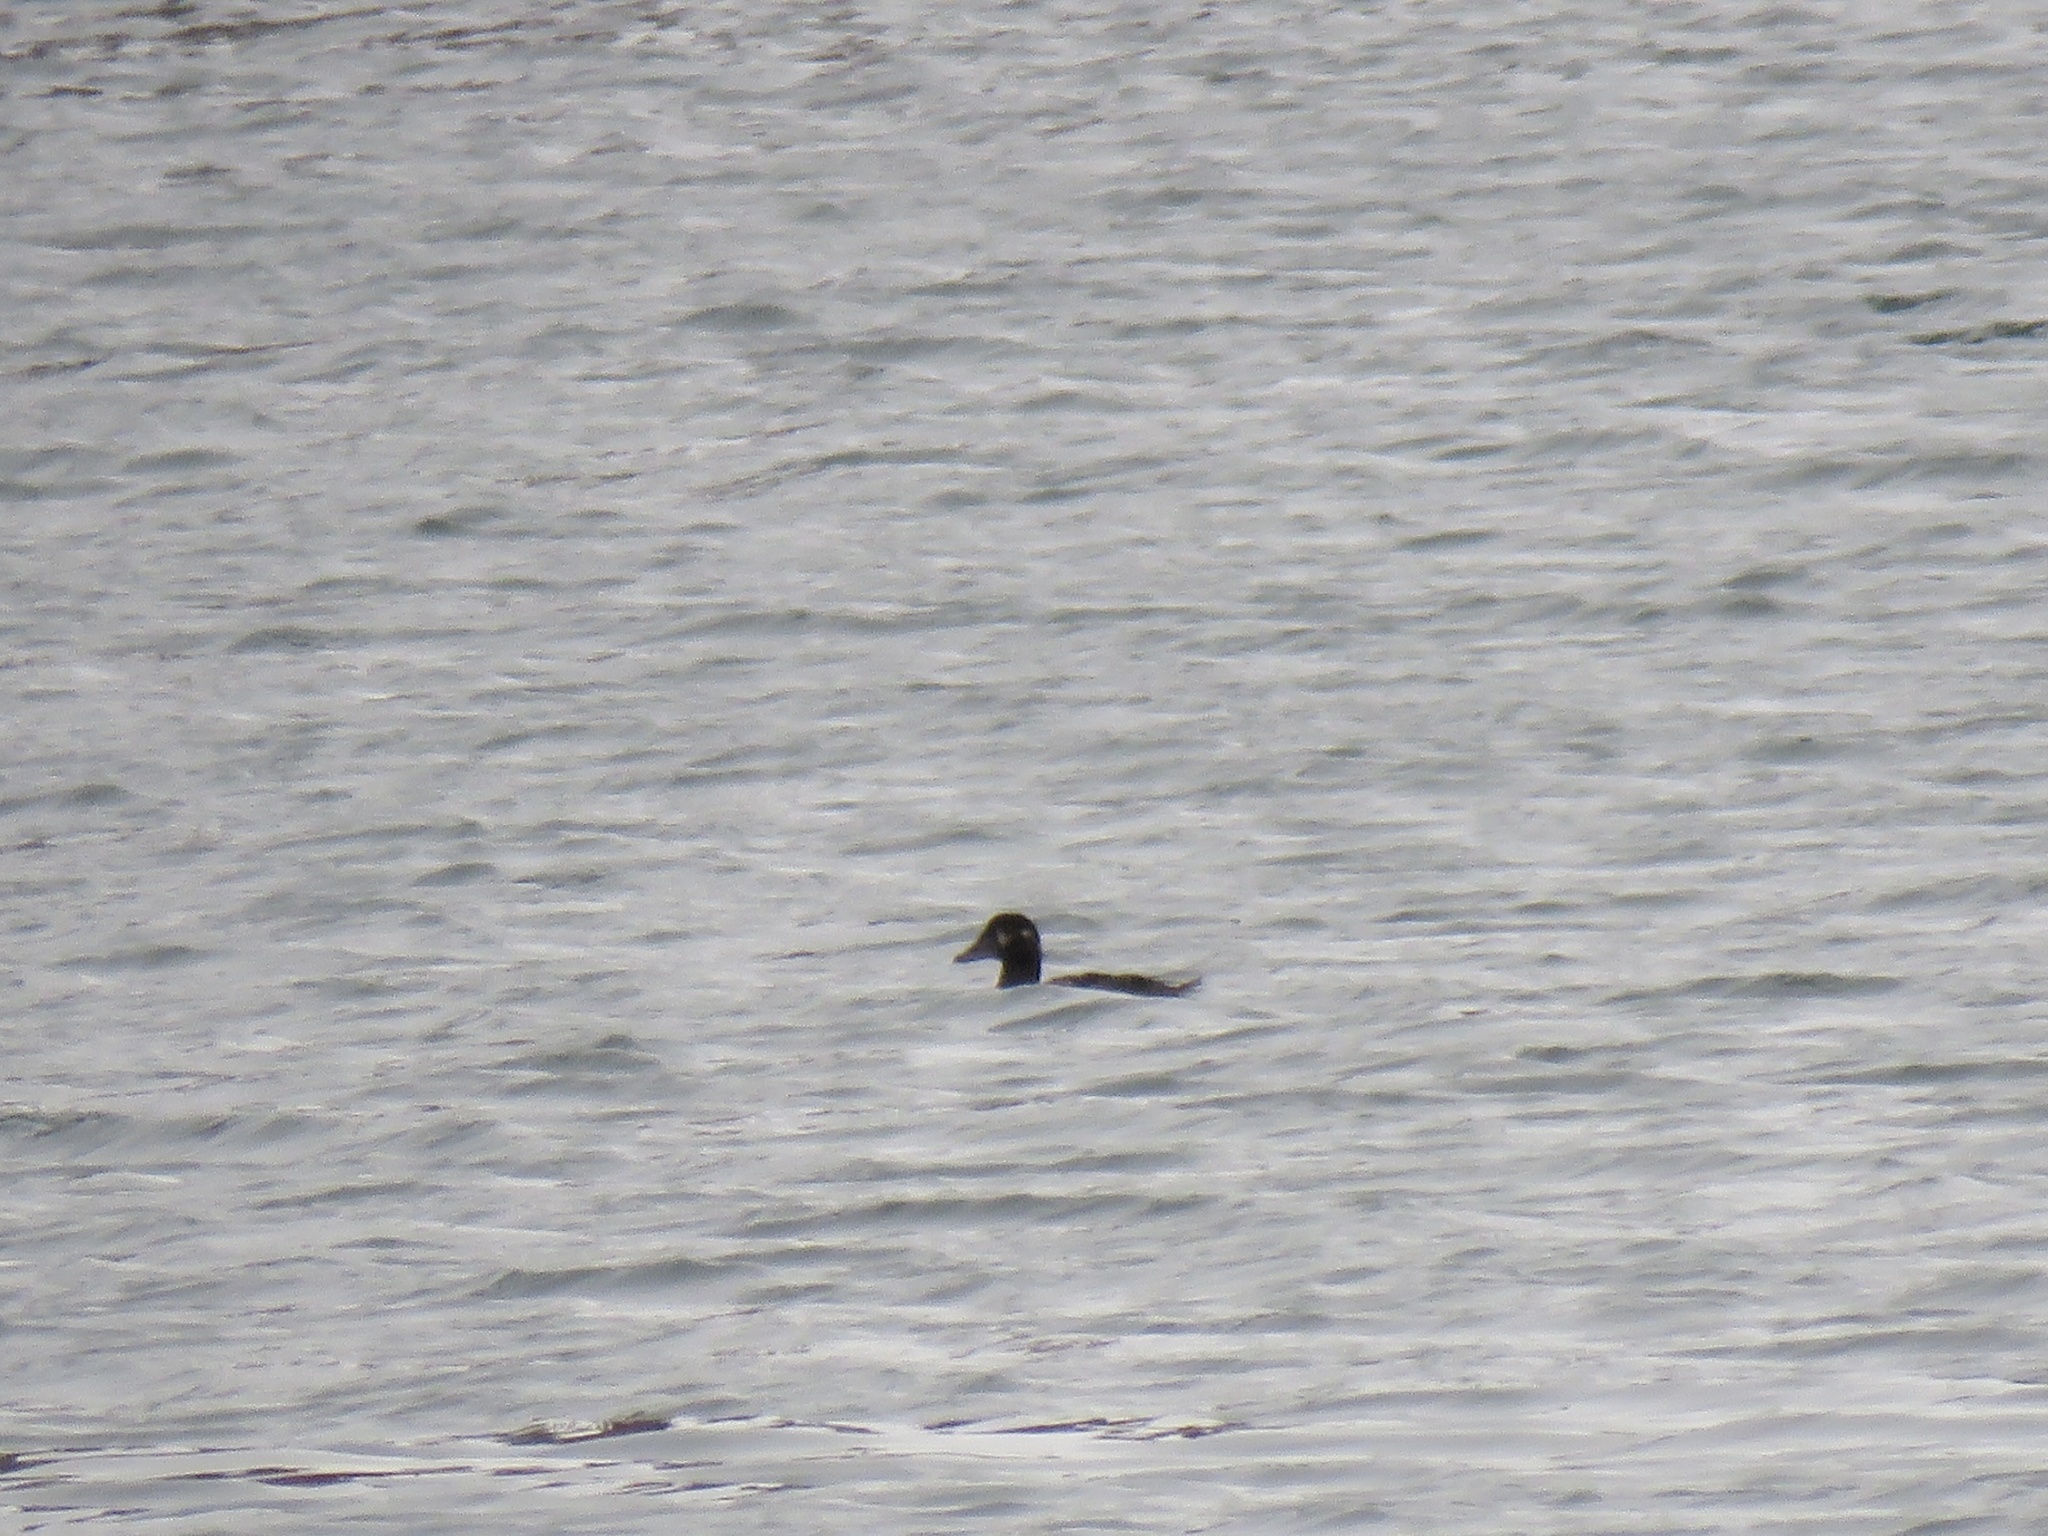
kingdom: Animalia
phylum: Chordata
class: Aves
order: Anseriformes
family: Anatidae
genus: Melanitta
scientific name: Melanitta perspicillata
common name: Surf scoter
